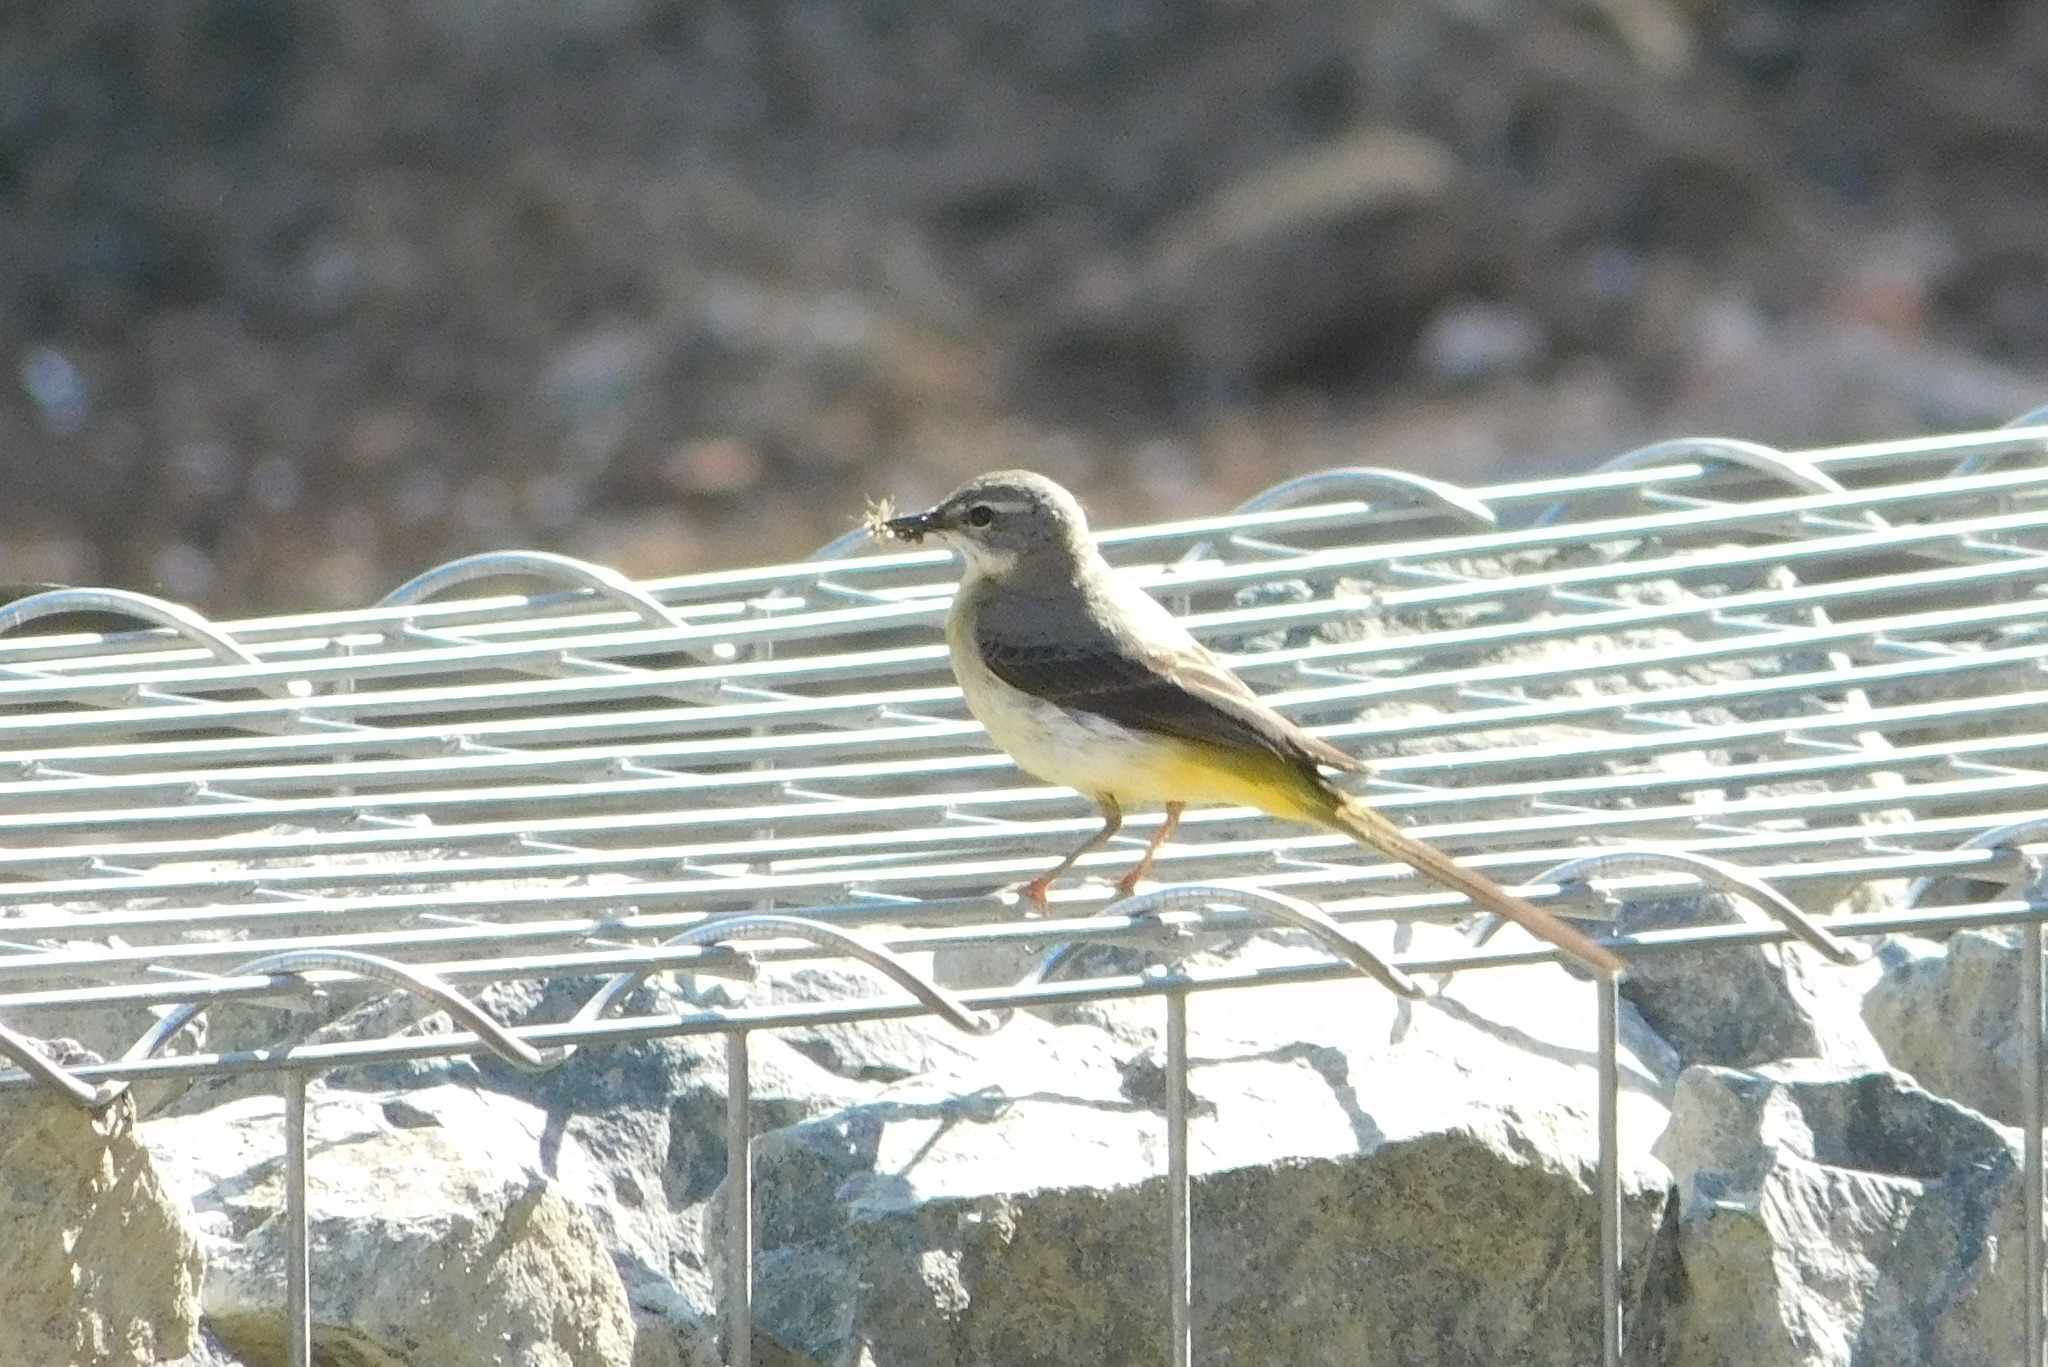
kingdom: Animalia
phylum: Chordata
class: Aves
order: Passeriformes
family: Motacillidae
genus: Motacilla
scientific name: Motacilla cinerea
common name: Grey wagtail
